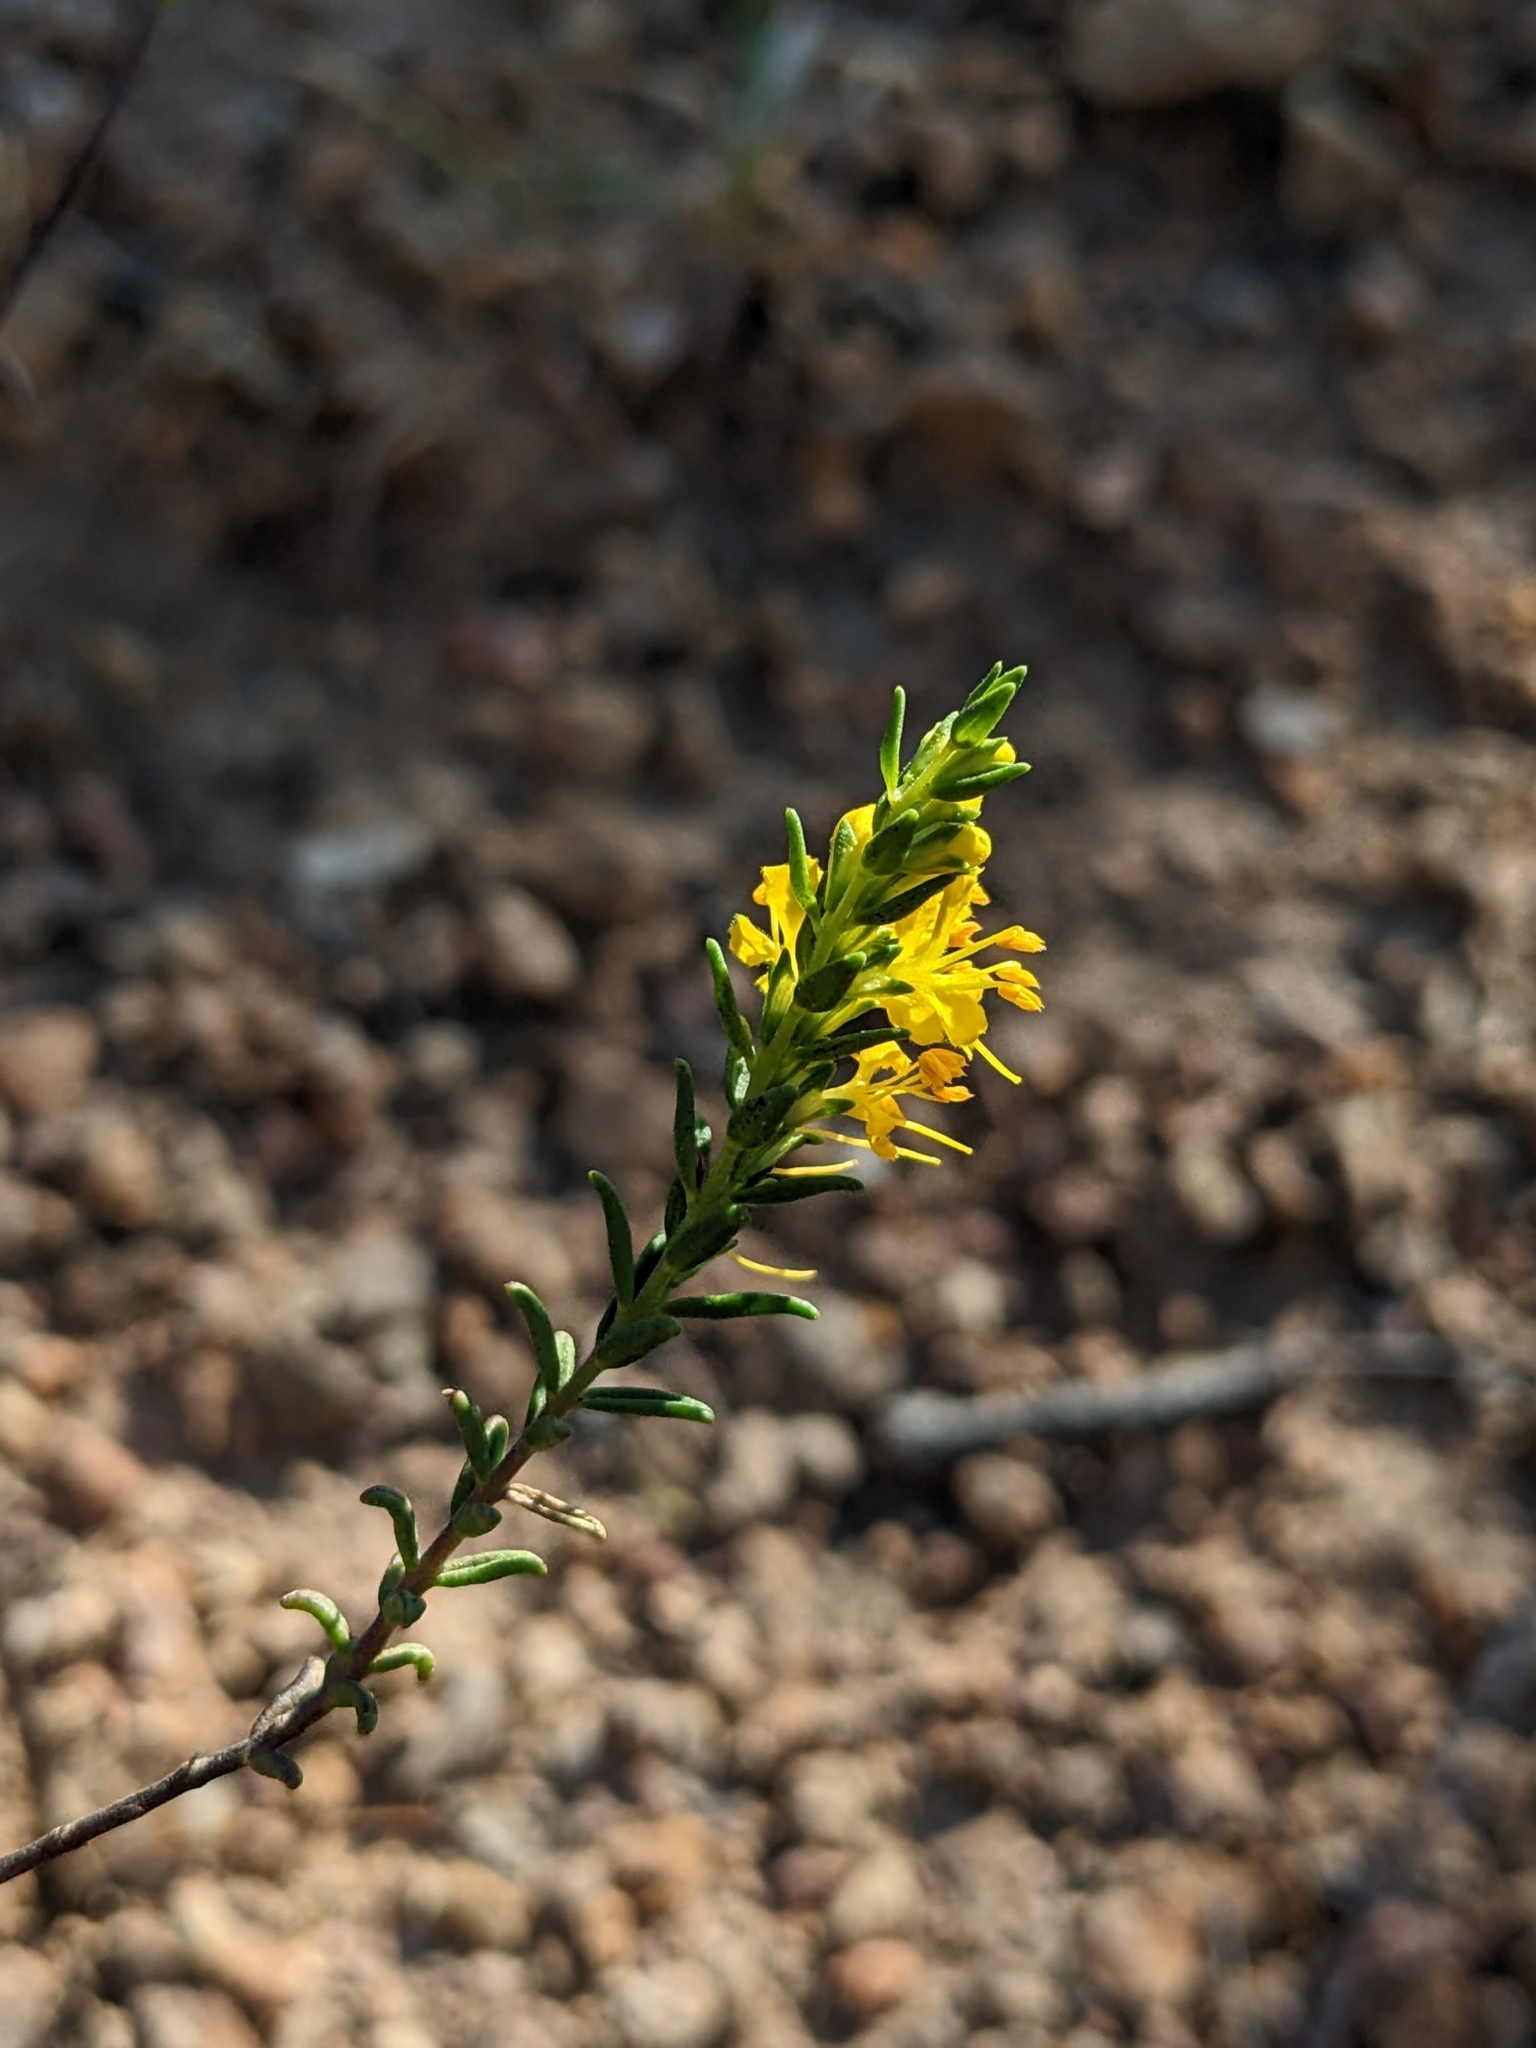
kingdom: Plantae
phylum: Tracheophyta
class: Magnoliopsida
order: Lamiales
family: Orobanchaceae
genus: Odontites
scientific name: Odontites luteus
